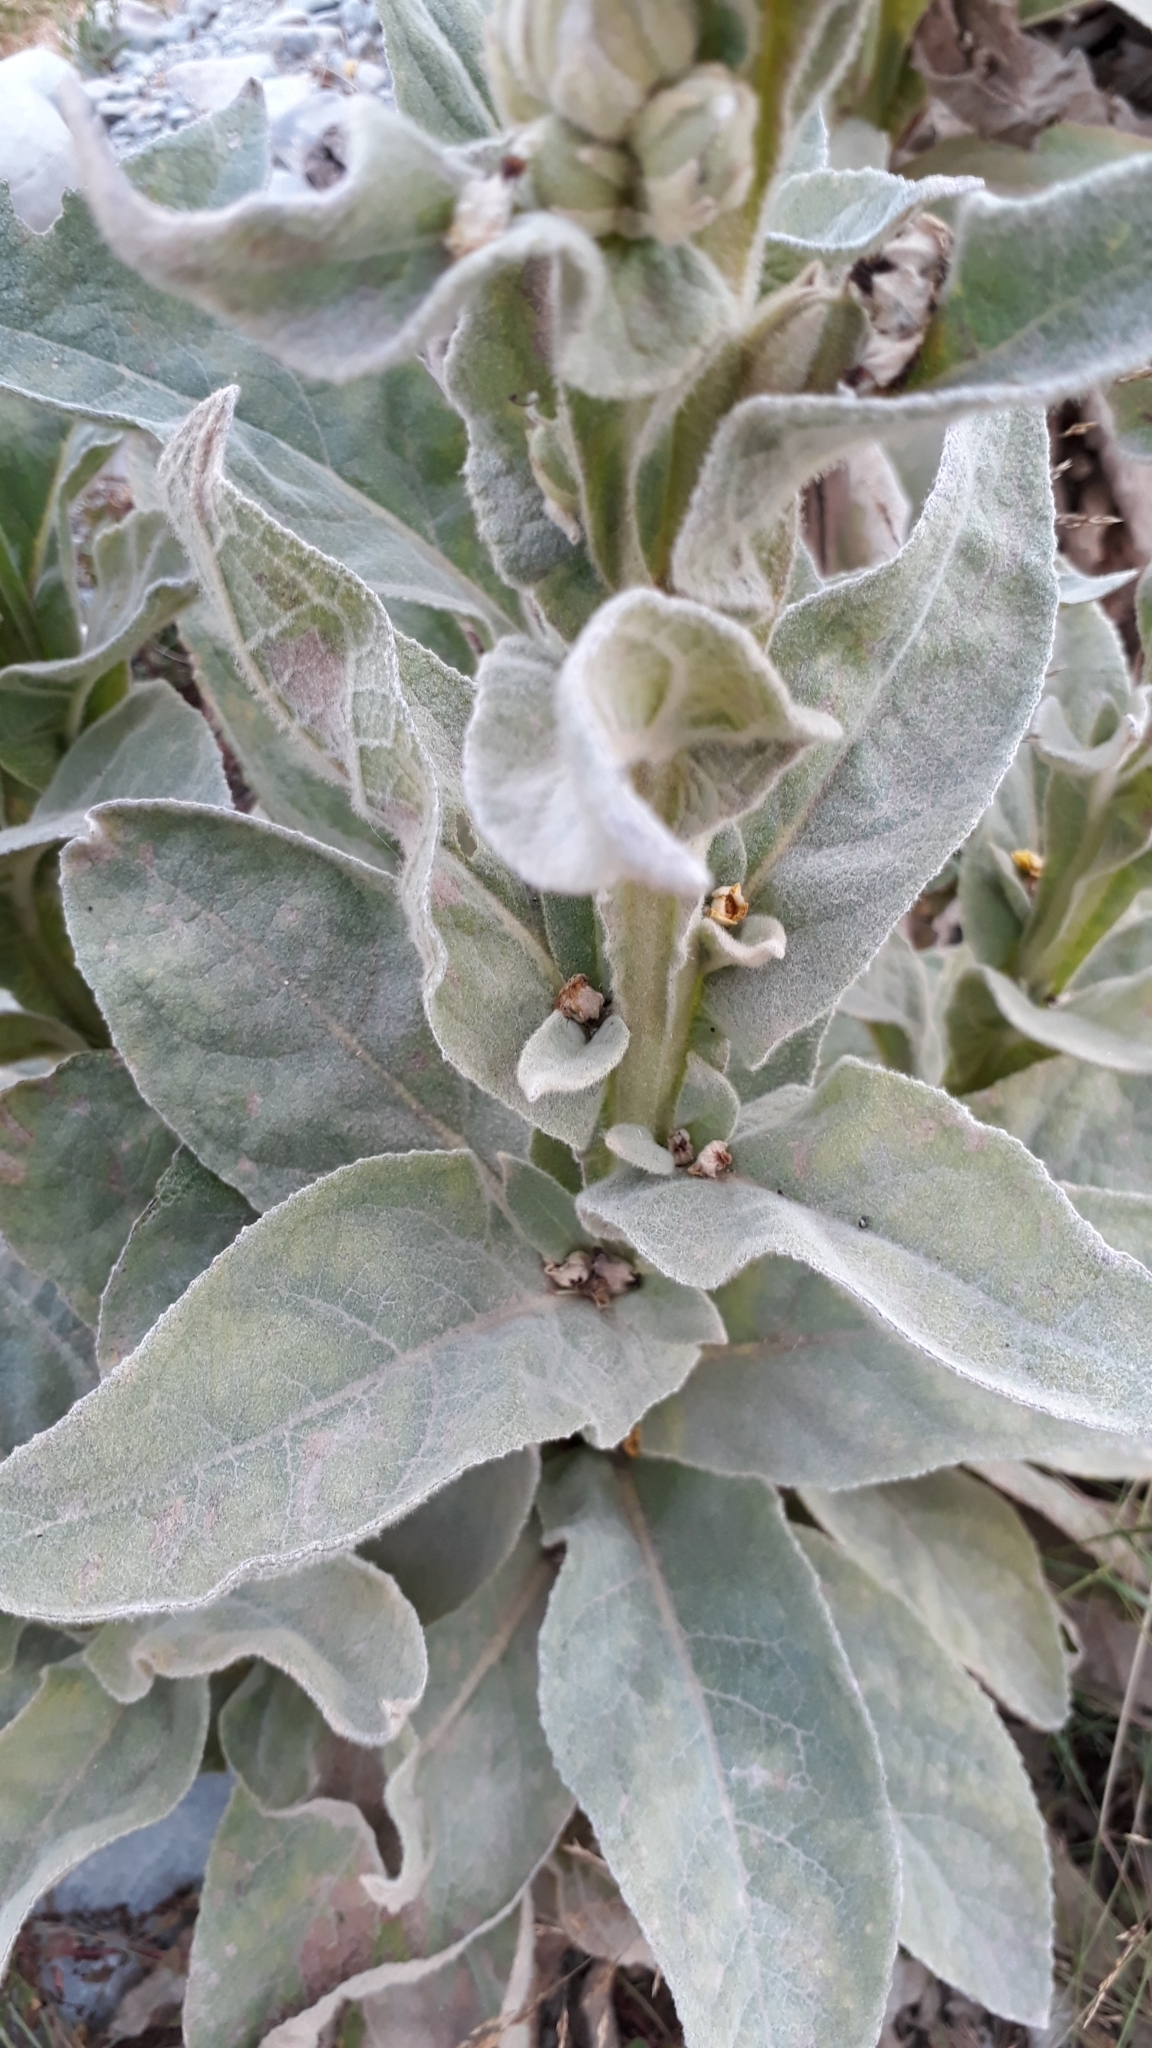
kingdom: Plantae
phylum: Tracheophyta
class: Magnoliopsida
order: Lamiales
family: Scrophulariaceae
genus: Verbascum
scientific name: Verbascum thapsus
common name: Common mullein
